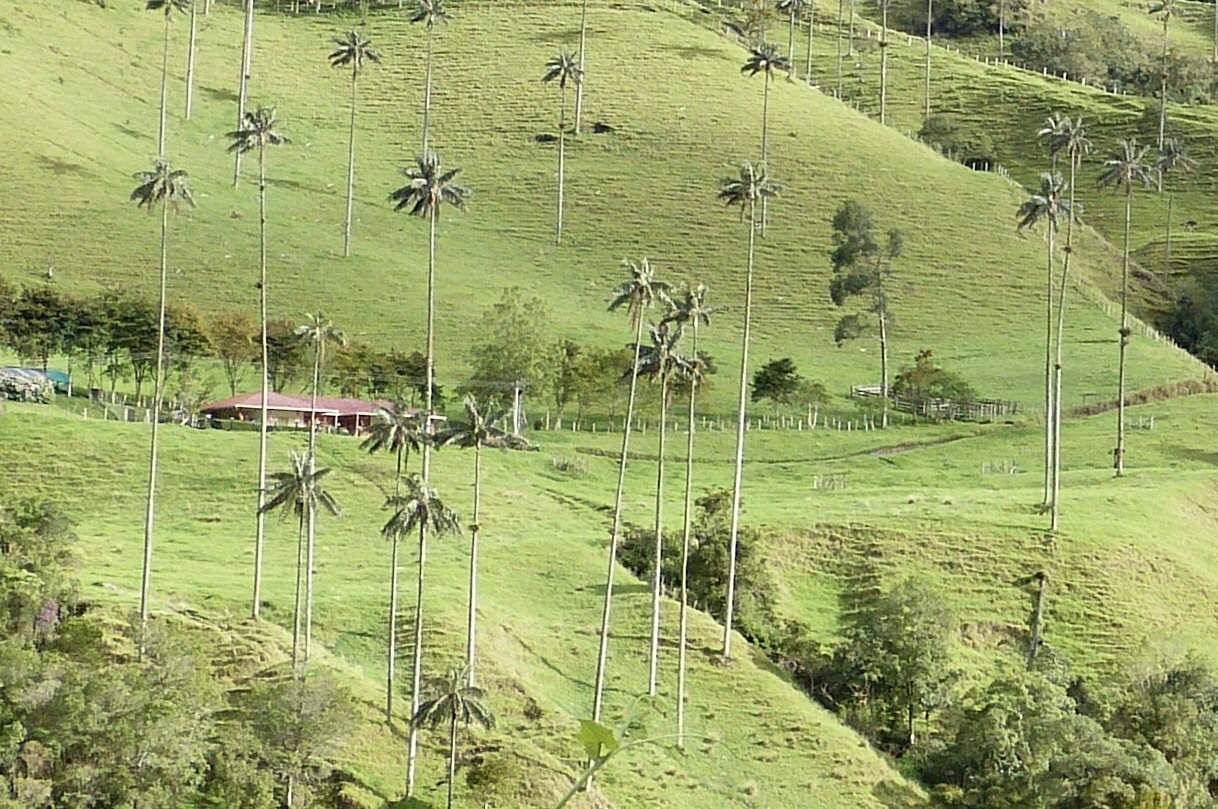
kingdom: Plantae
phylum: Tracheophyta
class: Liliopsida
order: Arecales
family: Arecaceae
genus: Ceroxylon
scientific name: Ceroxylon quindiuense
